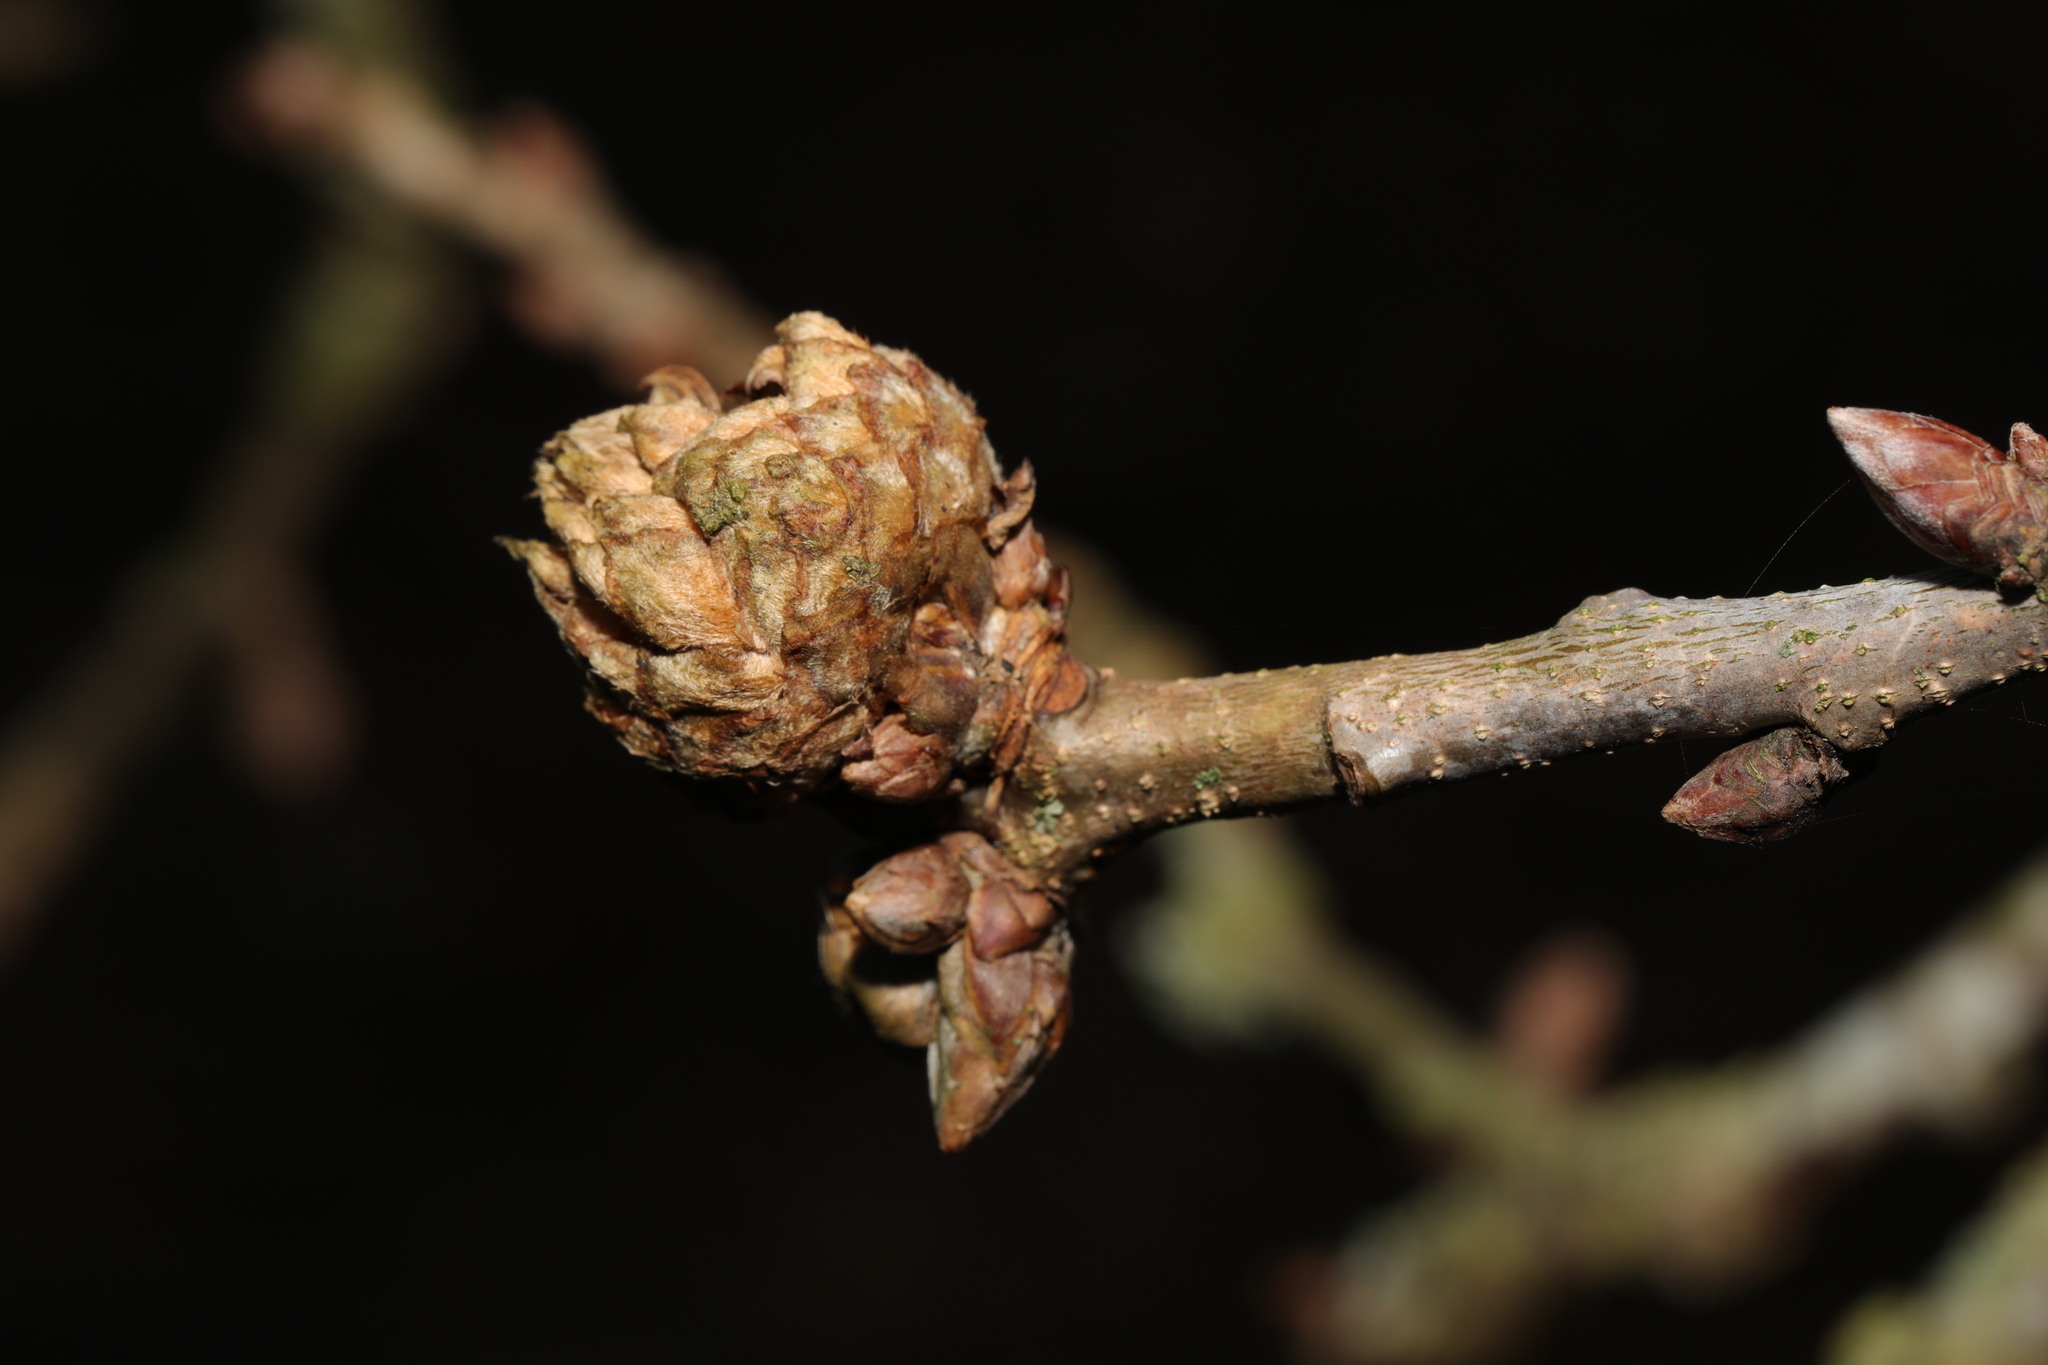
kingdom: Animalia
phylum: Arthropoda
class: Insecta
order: Hymenoptera
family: Cynipidae
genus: Andricus
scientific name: Andricus foecundatrix
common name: Artichoke gall
